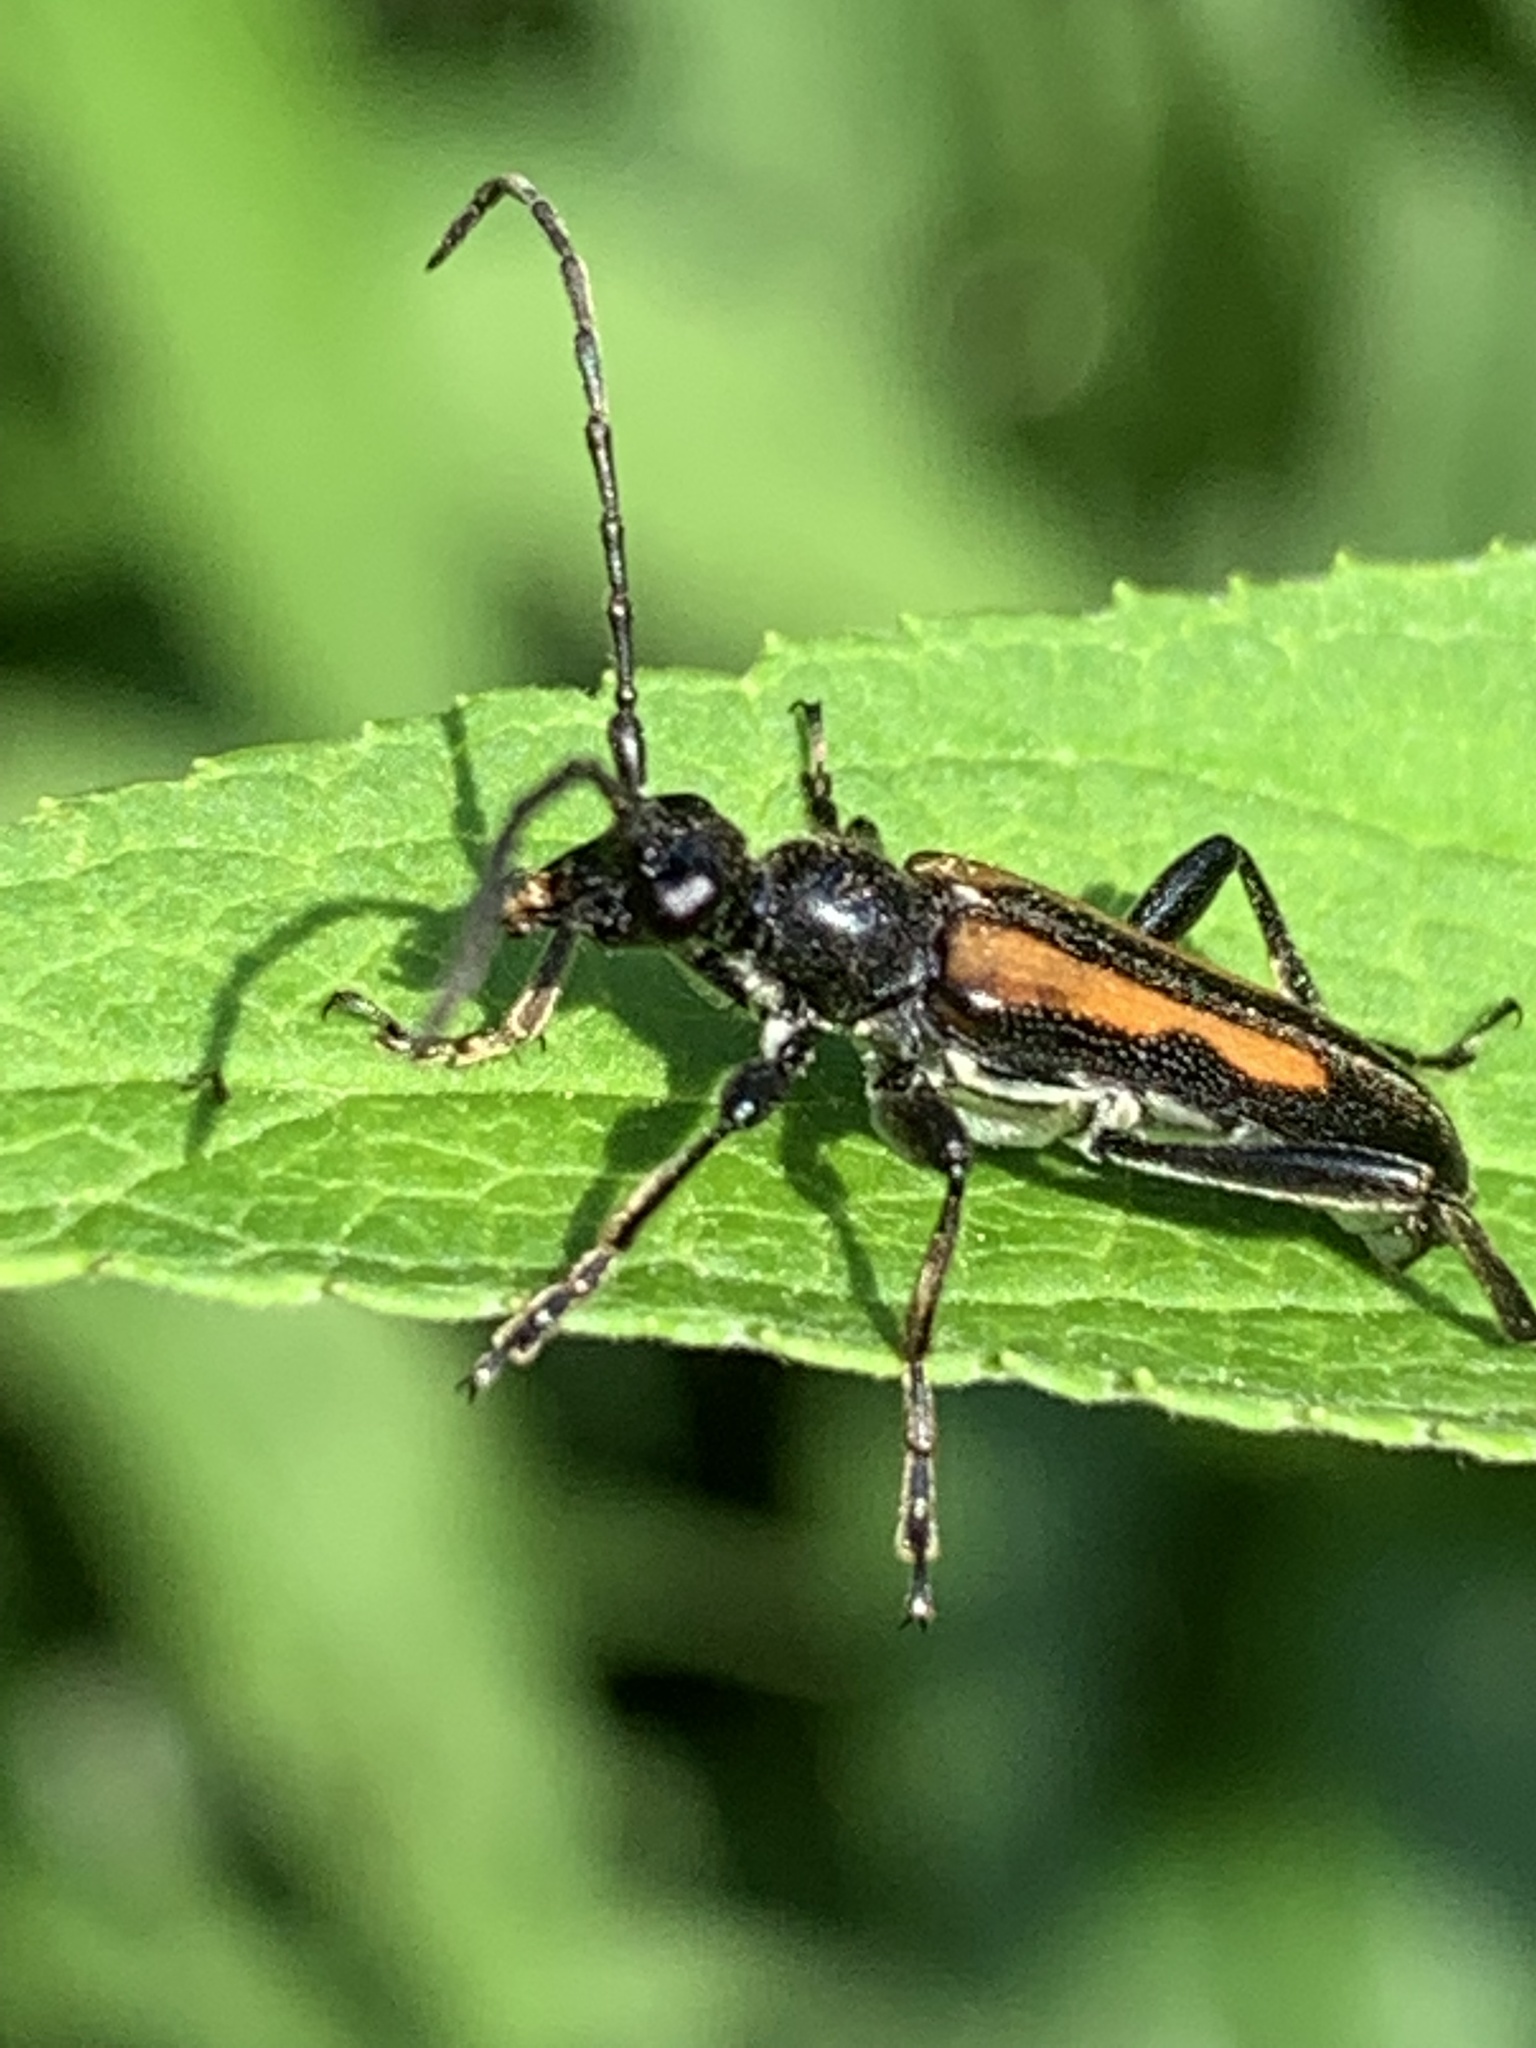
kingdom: Animalia
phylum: Arthropoda
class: Insecta
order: Coleoptera
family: Cerambycidae
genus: Strangalepta
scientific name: Strangalepta abbreviata
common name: Strangalepta flower longhorn beetle
